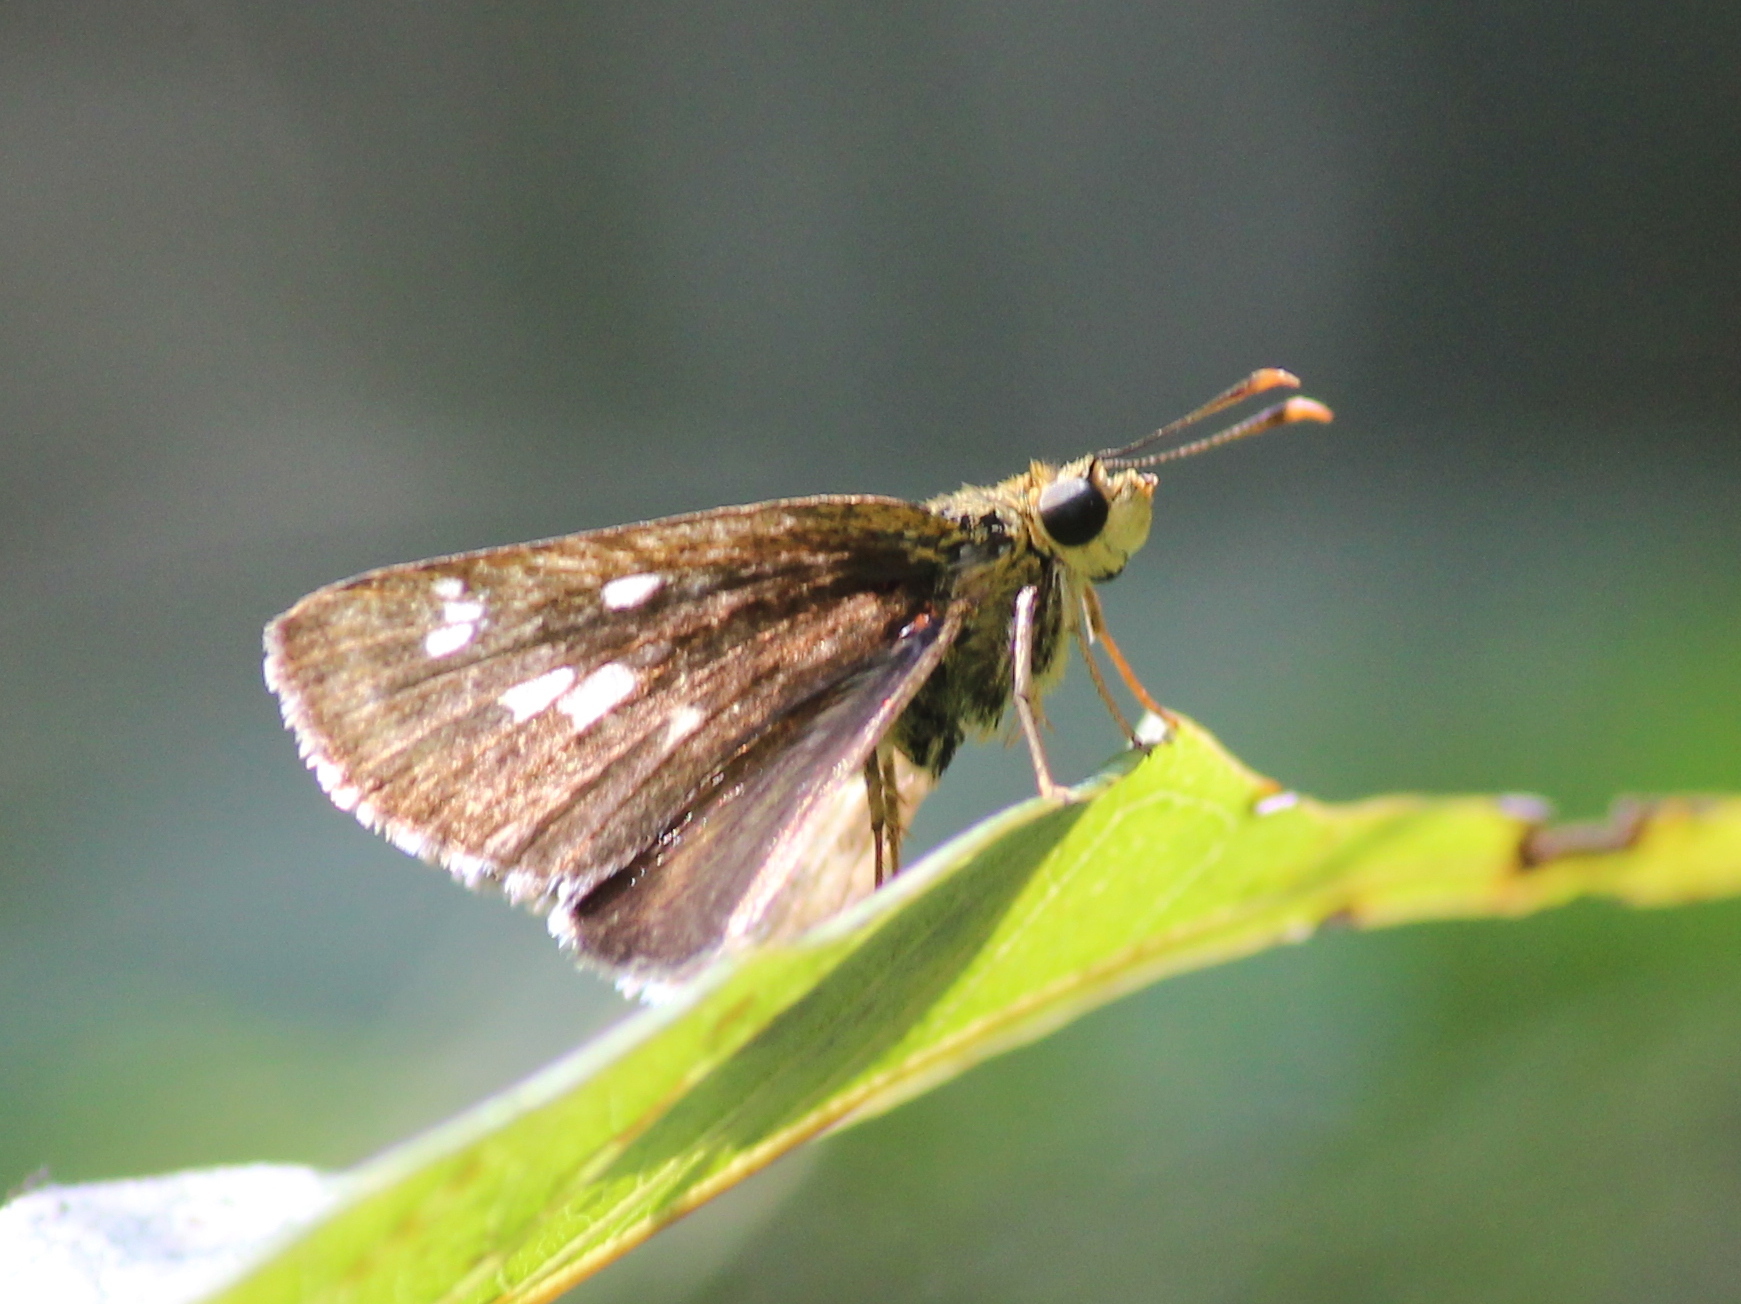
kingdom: Animalia
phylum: Arthropoda
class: Insecta
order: Lepidoptera
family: Hesperiidae
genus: Halpe
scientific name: Halpe homolea
